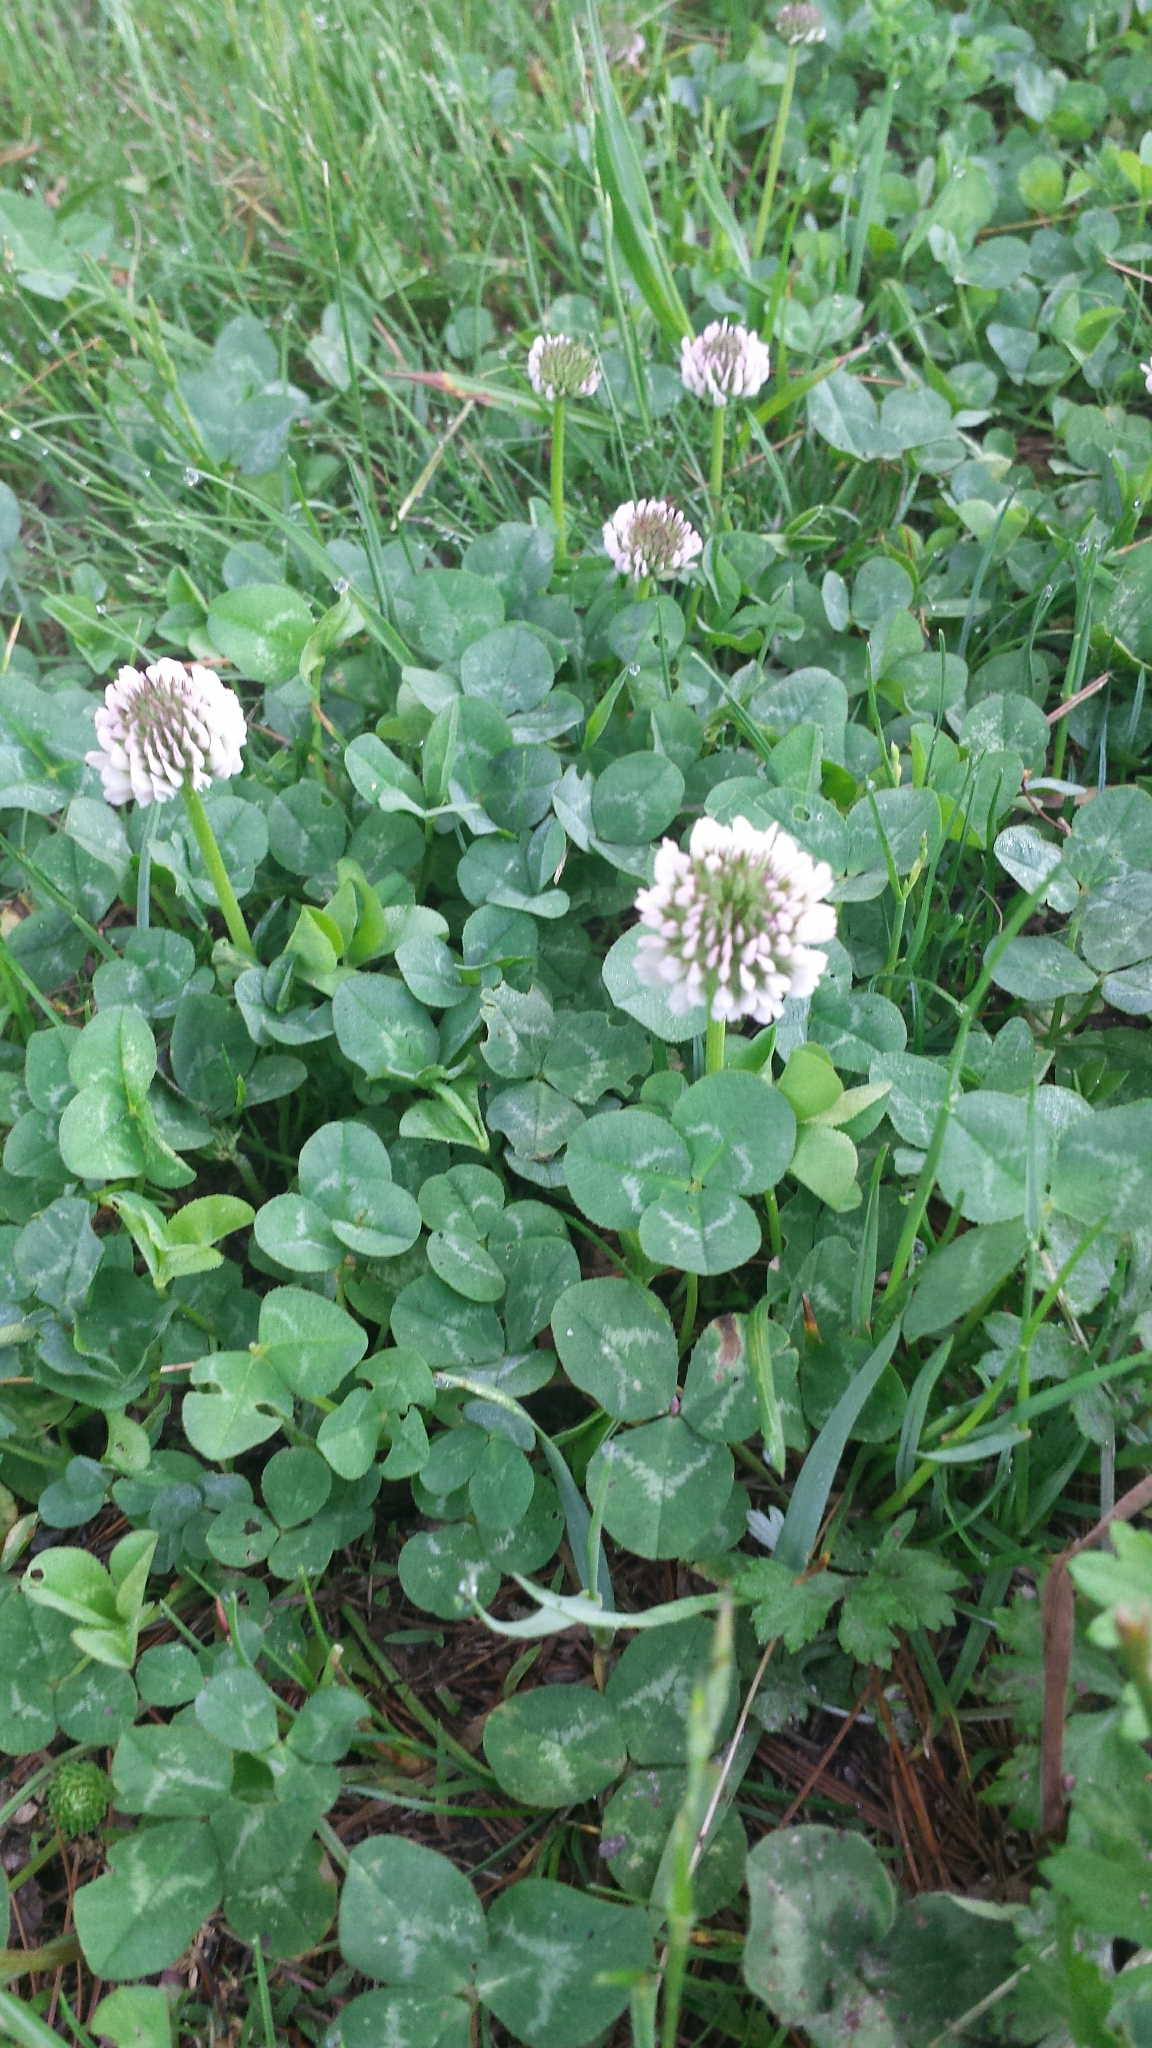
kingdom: Plantae
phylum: Tracheophyta
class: Magnoliopsida
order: Fabales
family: Fabaceae
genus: Trifolium
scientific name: Trifolium repens
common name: White clover
